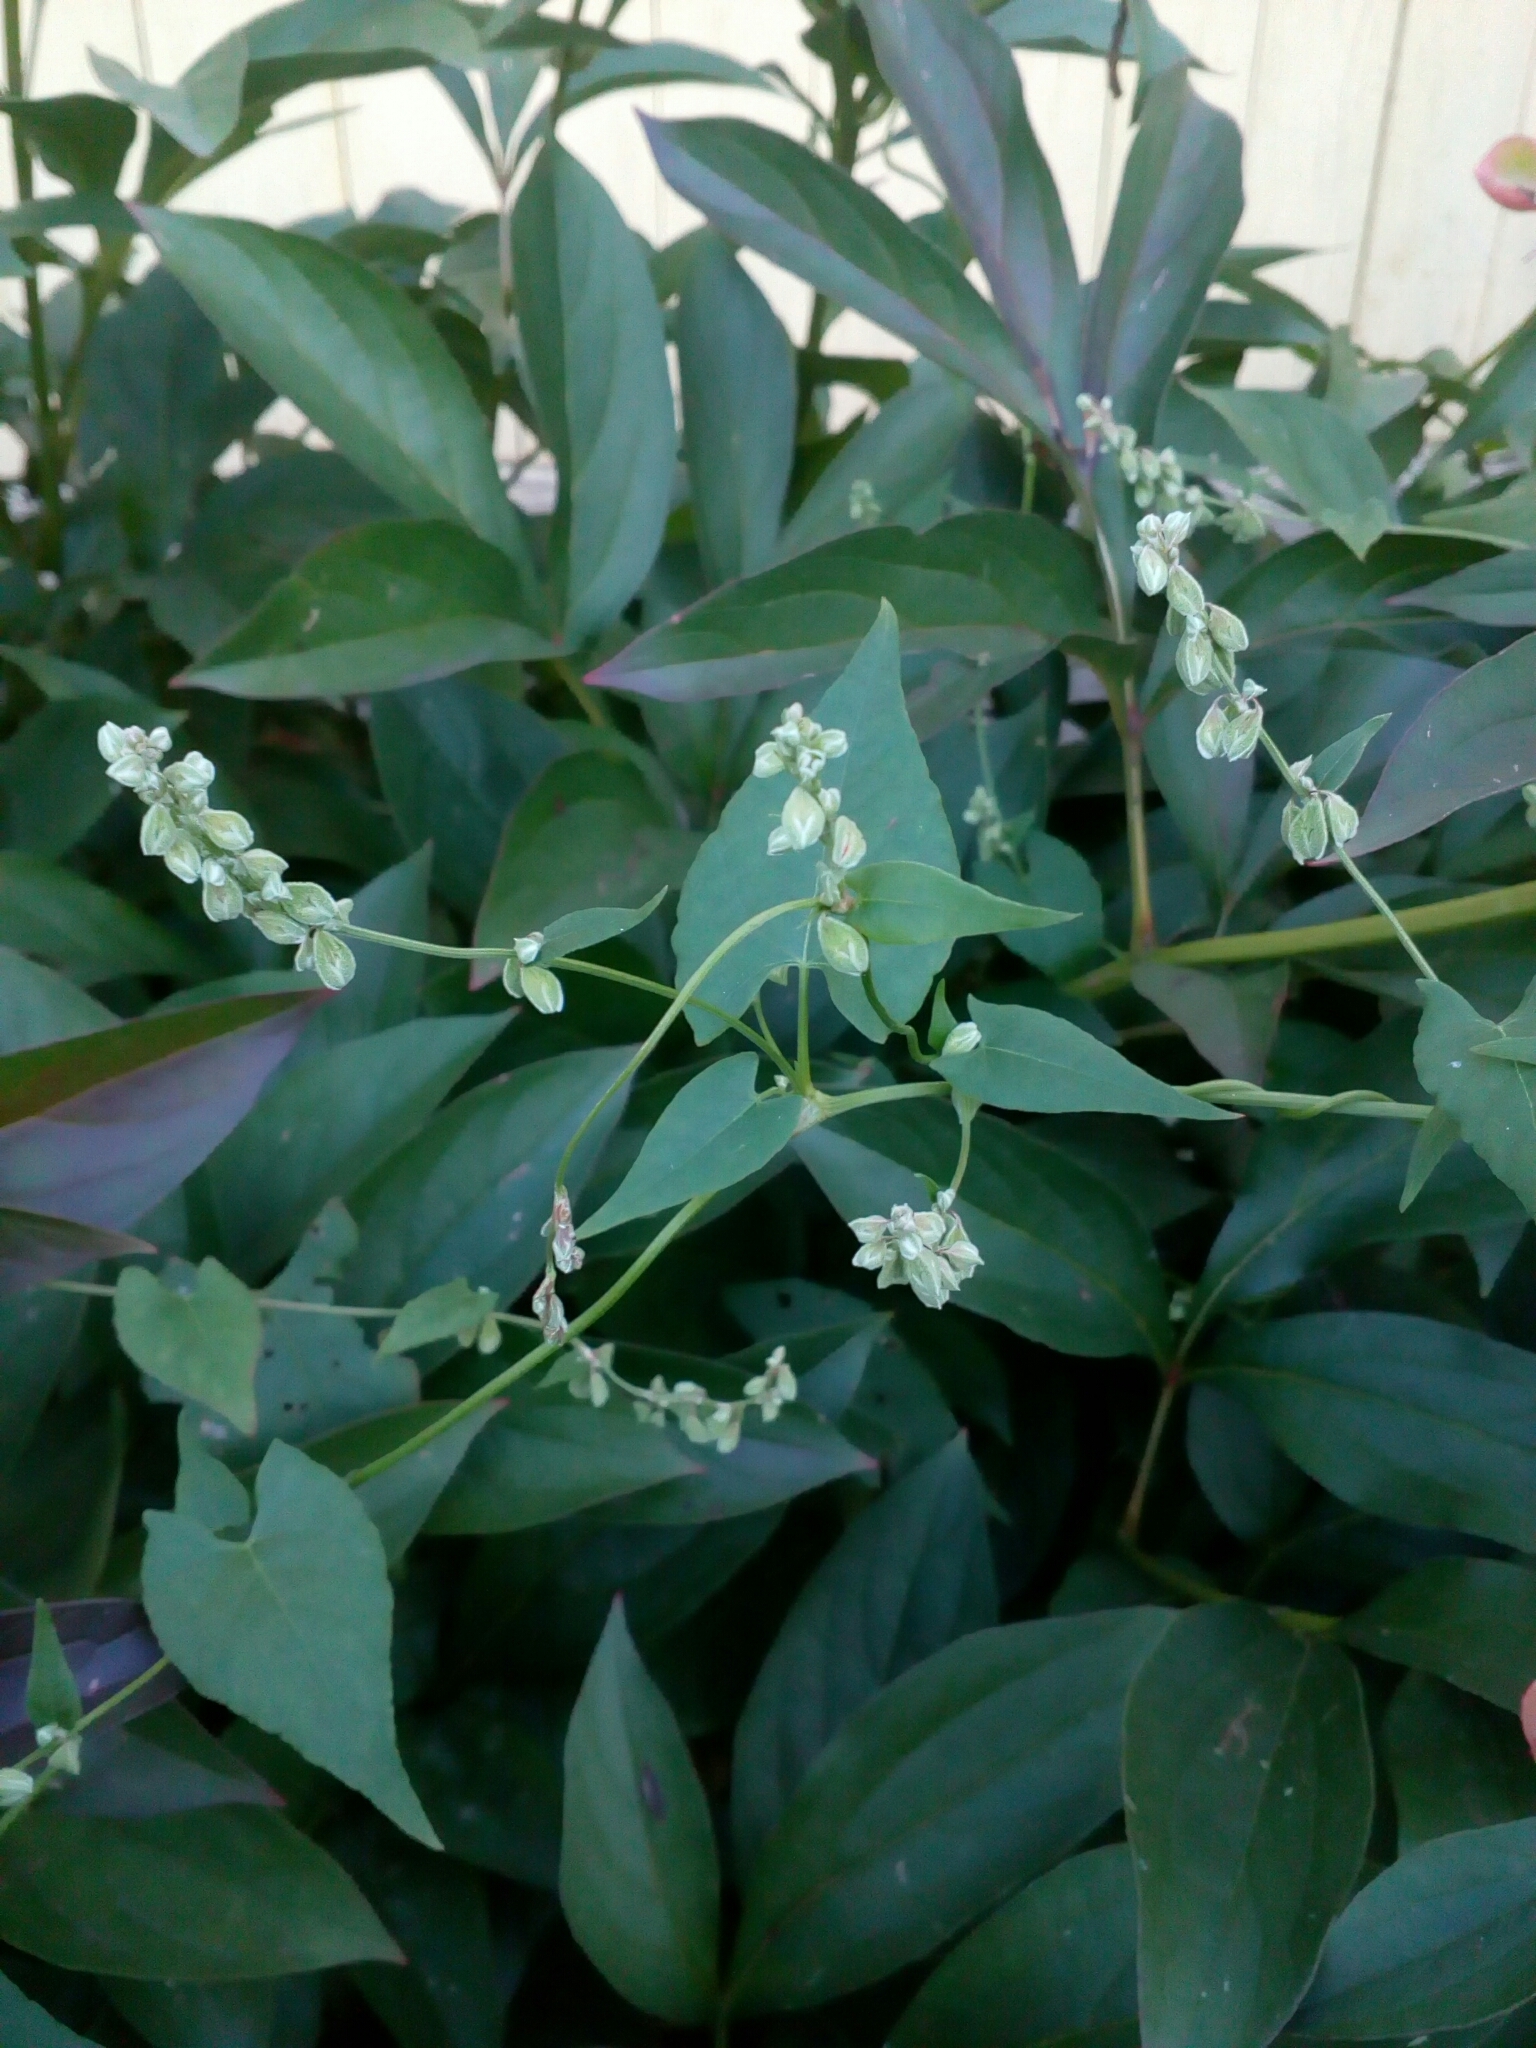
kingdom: Plantae
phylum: Tracheophyta
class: Magnoliopsida
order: Caryophyllales
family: Polygonaceae
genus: Fallopia
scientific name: Fallopia convolvulus
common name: Black bindweed
